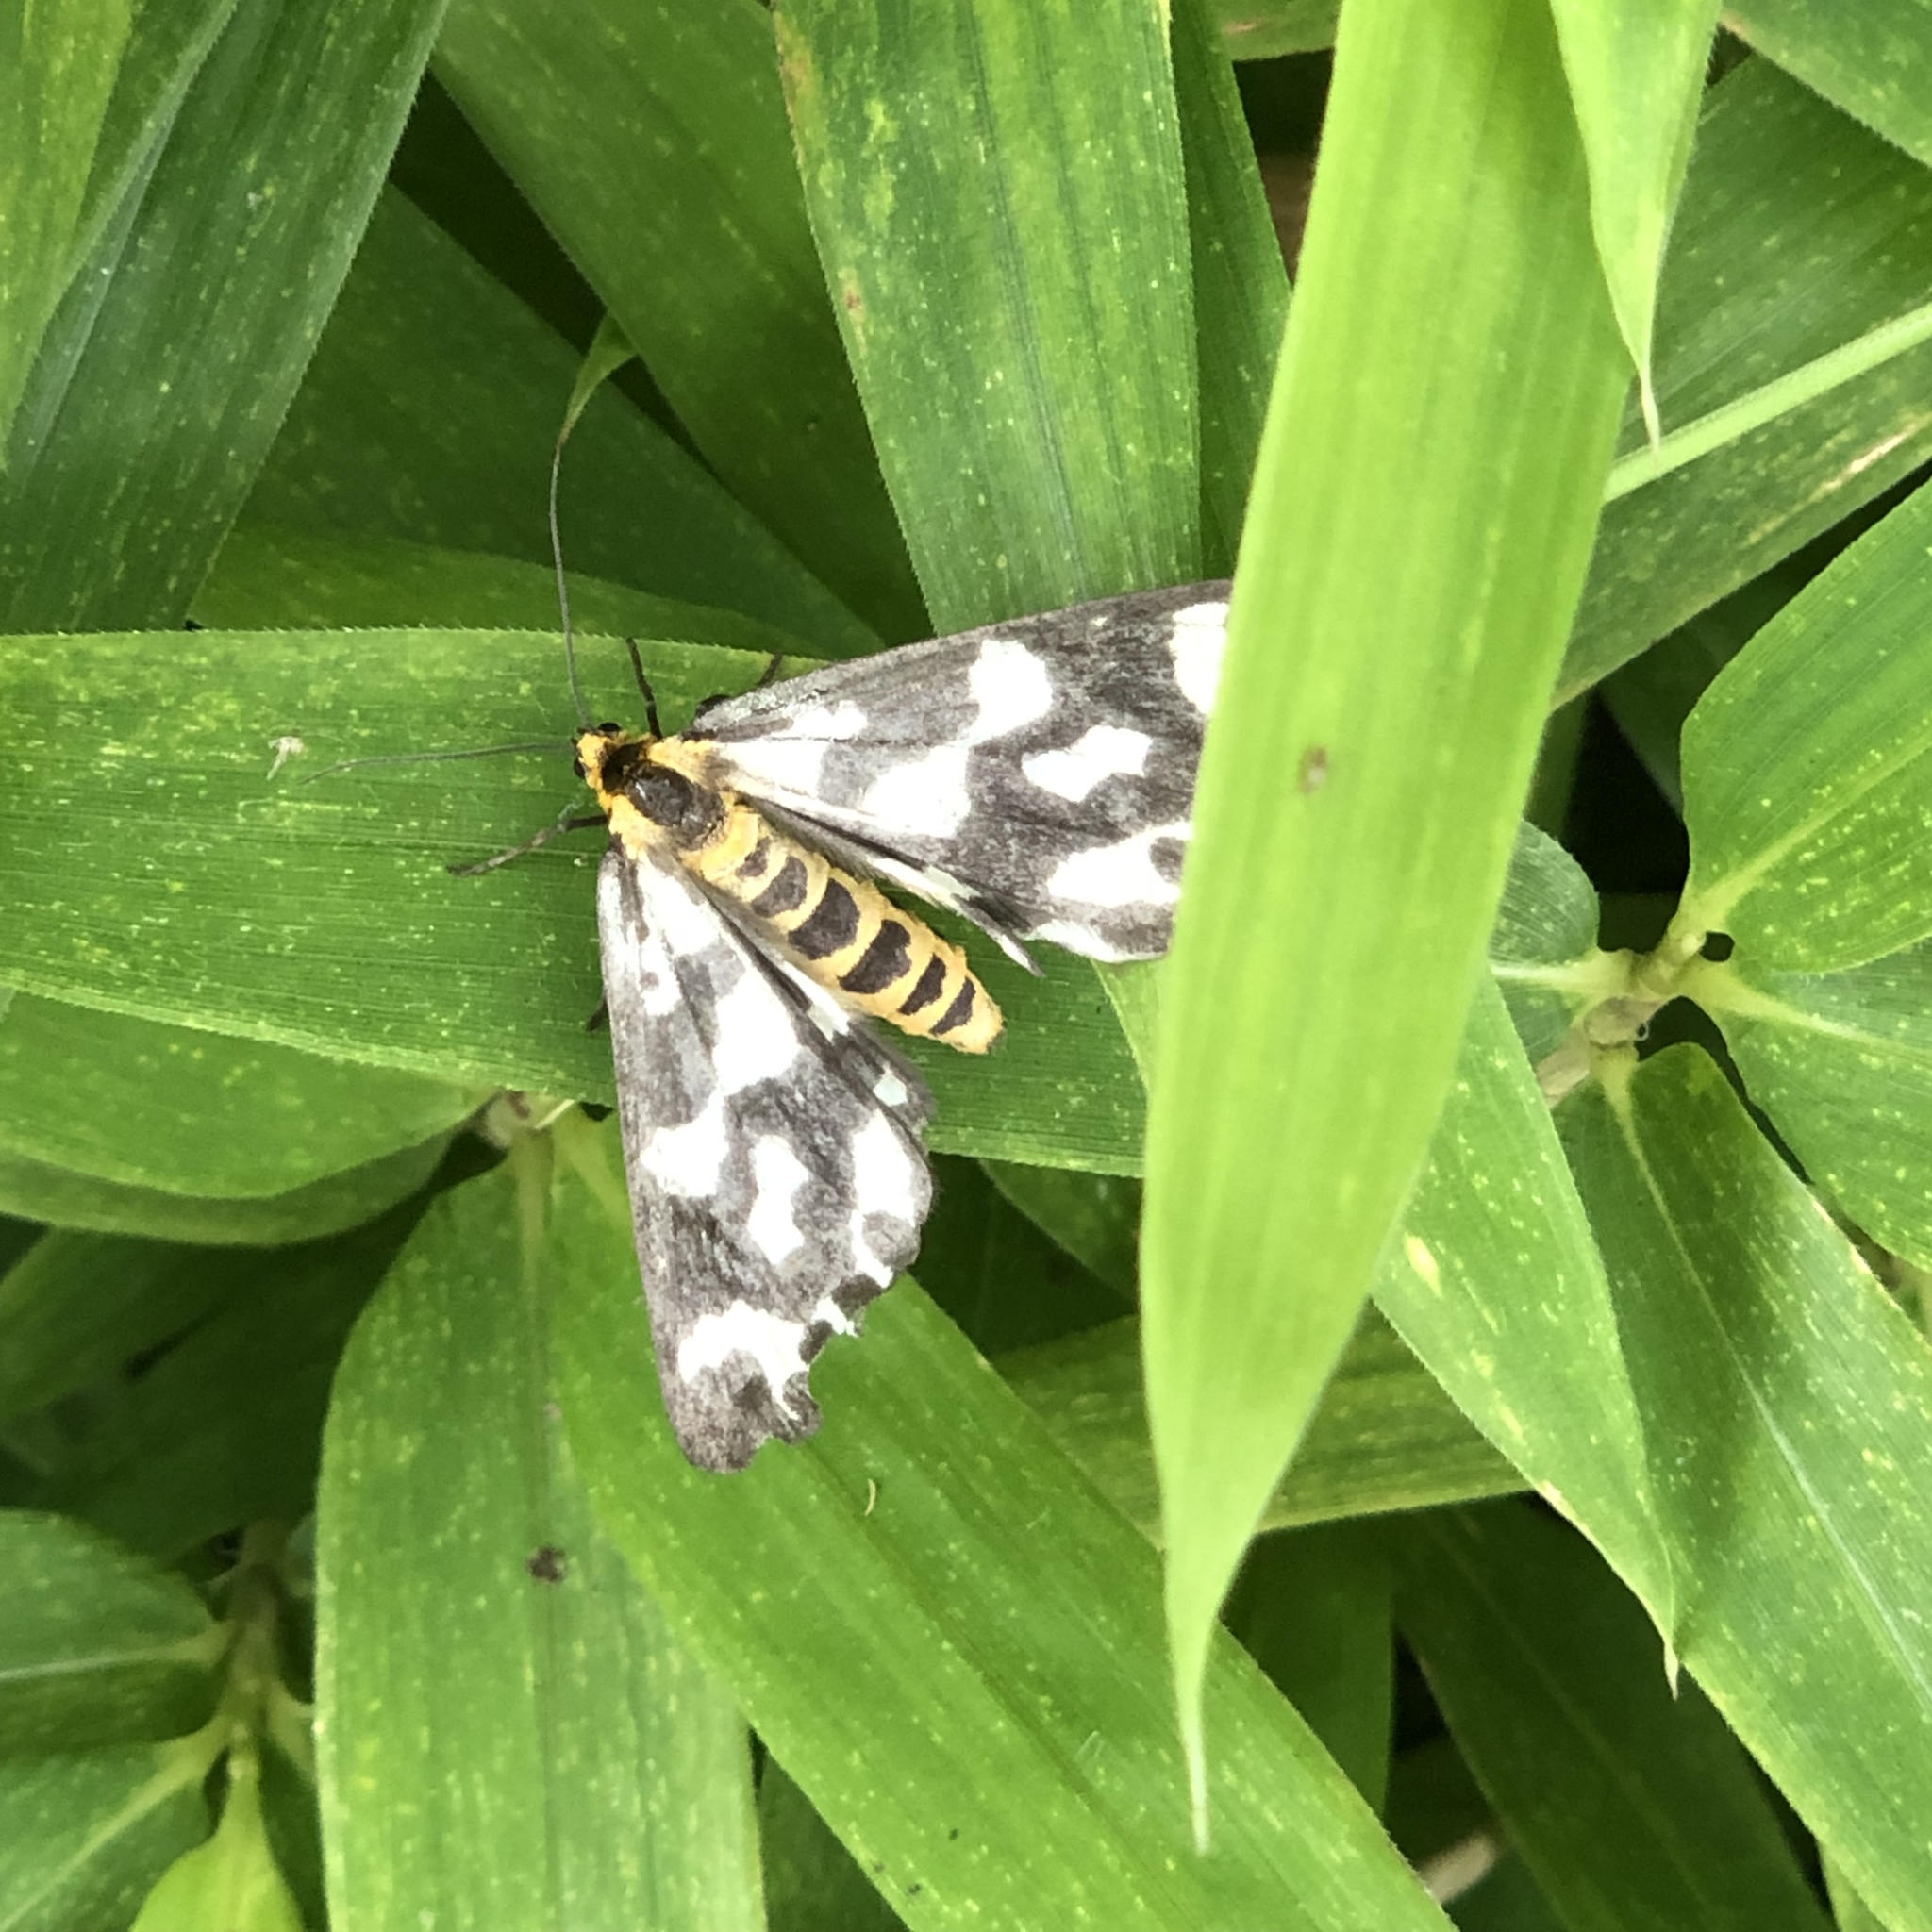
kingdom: Animalia
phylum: Arthropoda
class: Insecta
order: Lepidoptera
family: Geometridae
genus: Cystidia
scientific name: Cystidia couaggaria
